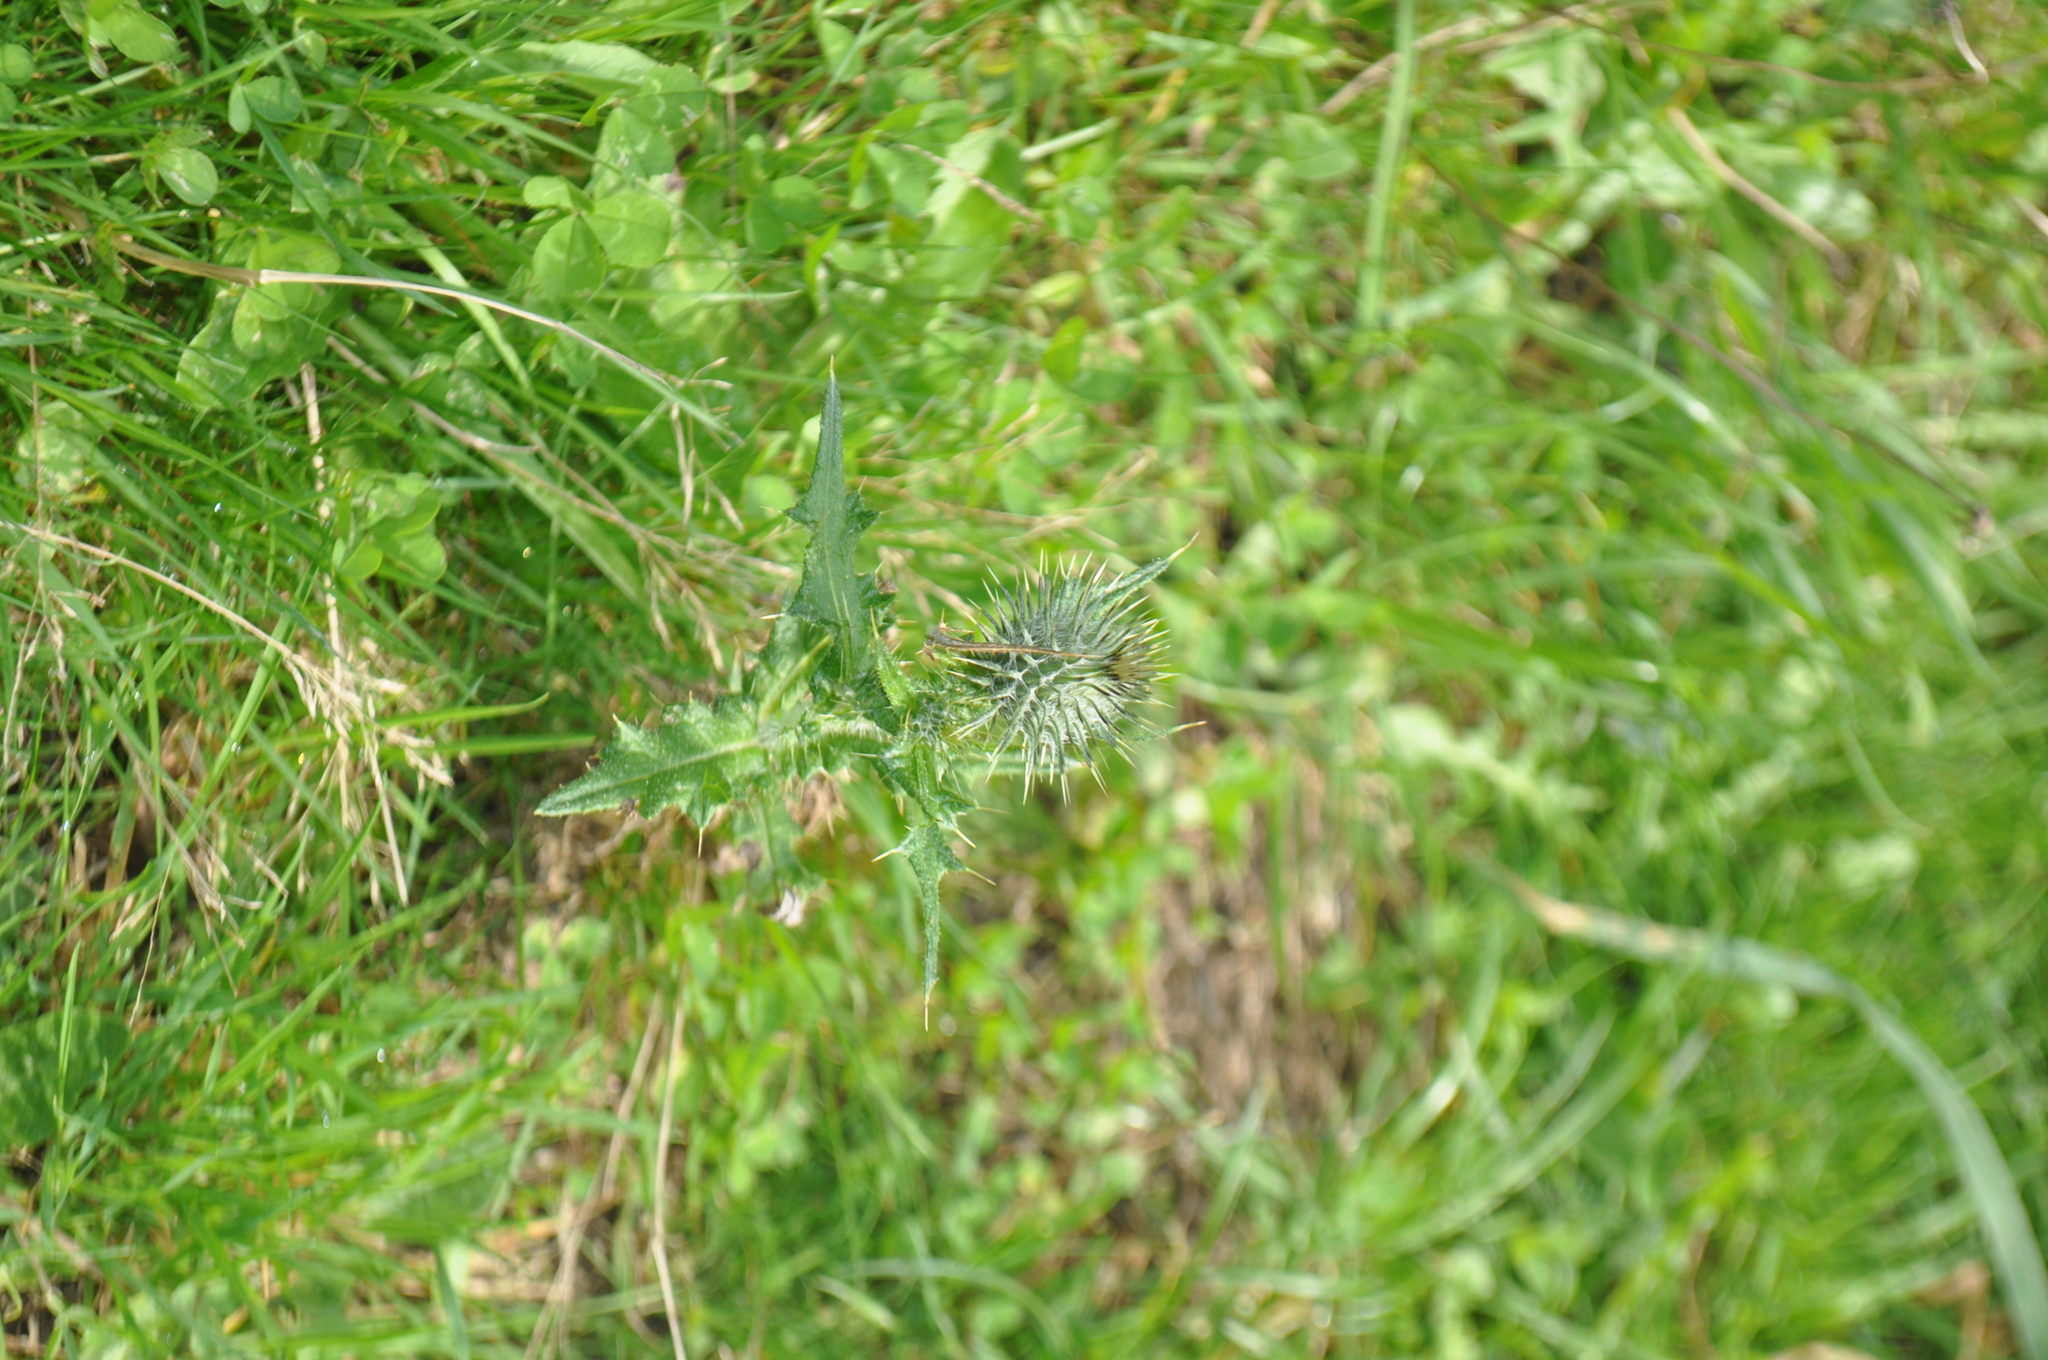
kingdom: Plantae
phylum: Tracheophyta
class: Magnoliopsida
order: Asterales
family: Asteraceae
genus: Cirsium
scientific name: Cirsium vulgare
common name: Bull thistle
